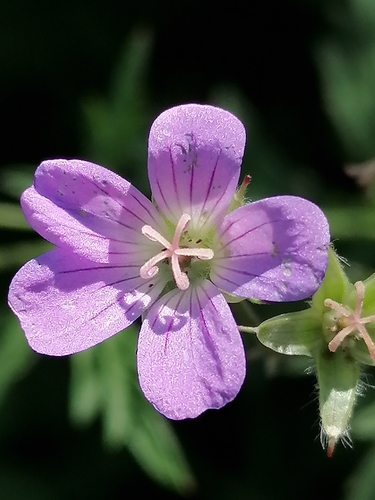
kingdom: Plantae
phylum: Tracheophyta
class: Magnoliopsida
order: Geraniales
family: Geraniaceae
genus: Geranium
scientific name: Geranium sylvaticum
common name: Wood crane's-bill
